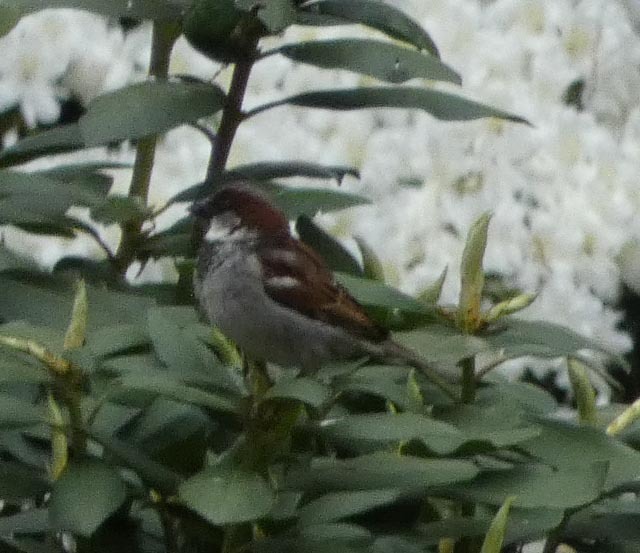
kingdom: Animalia
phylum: Chordata
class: Aves
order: Passeriformes
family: Passeridae
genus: Passer
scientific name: Passer domesticus
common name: House sparrow
